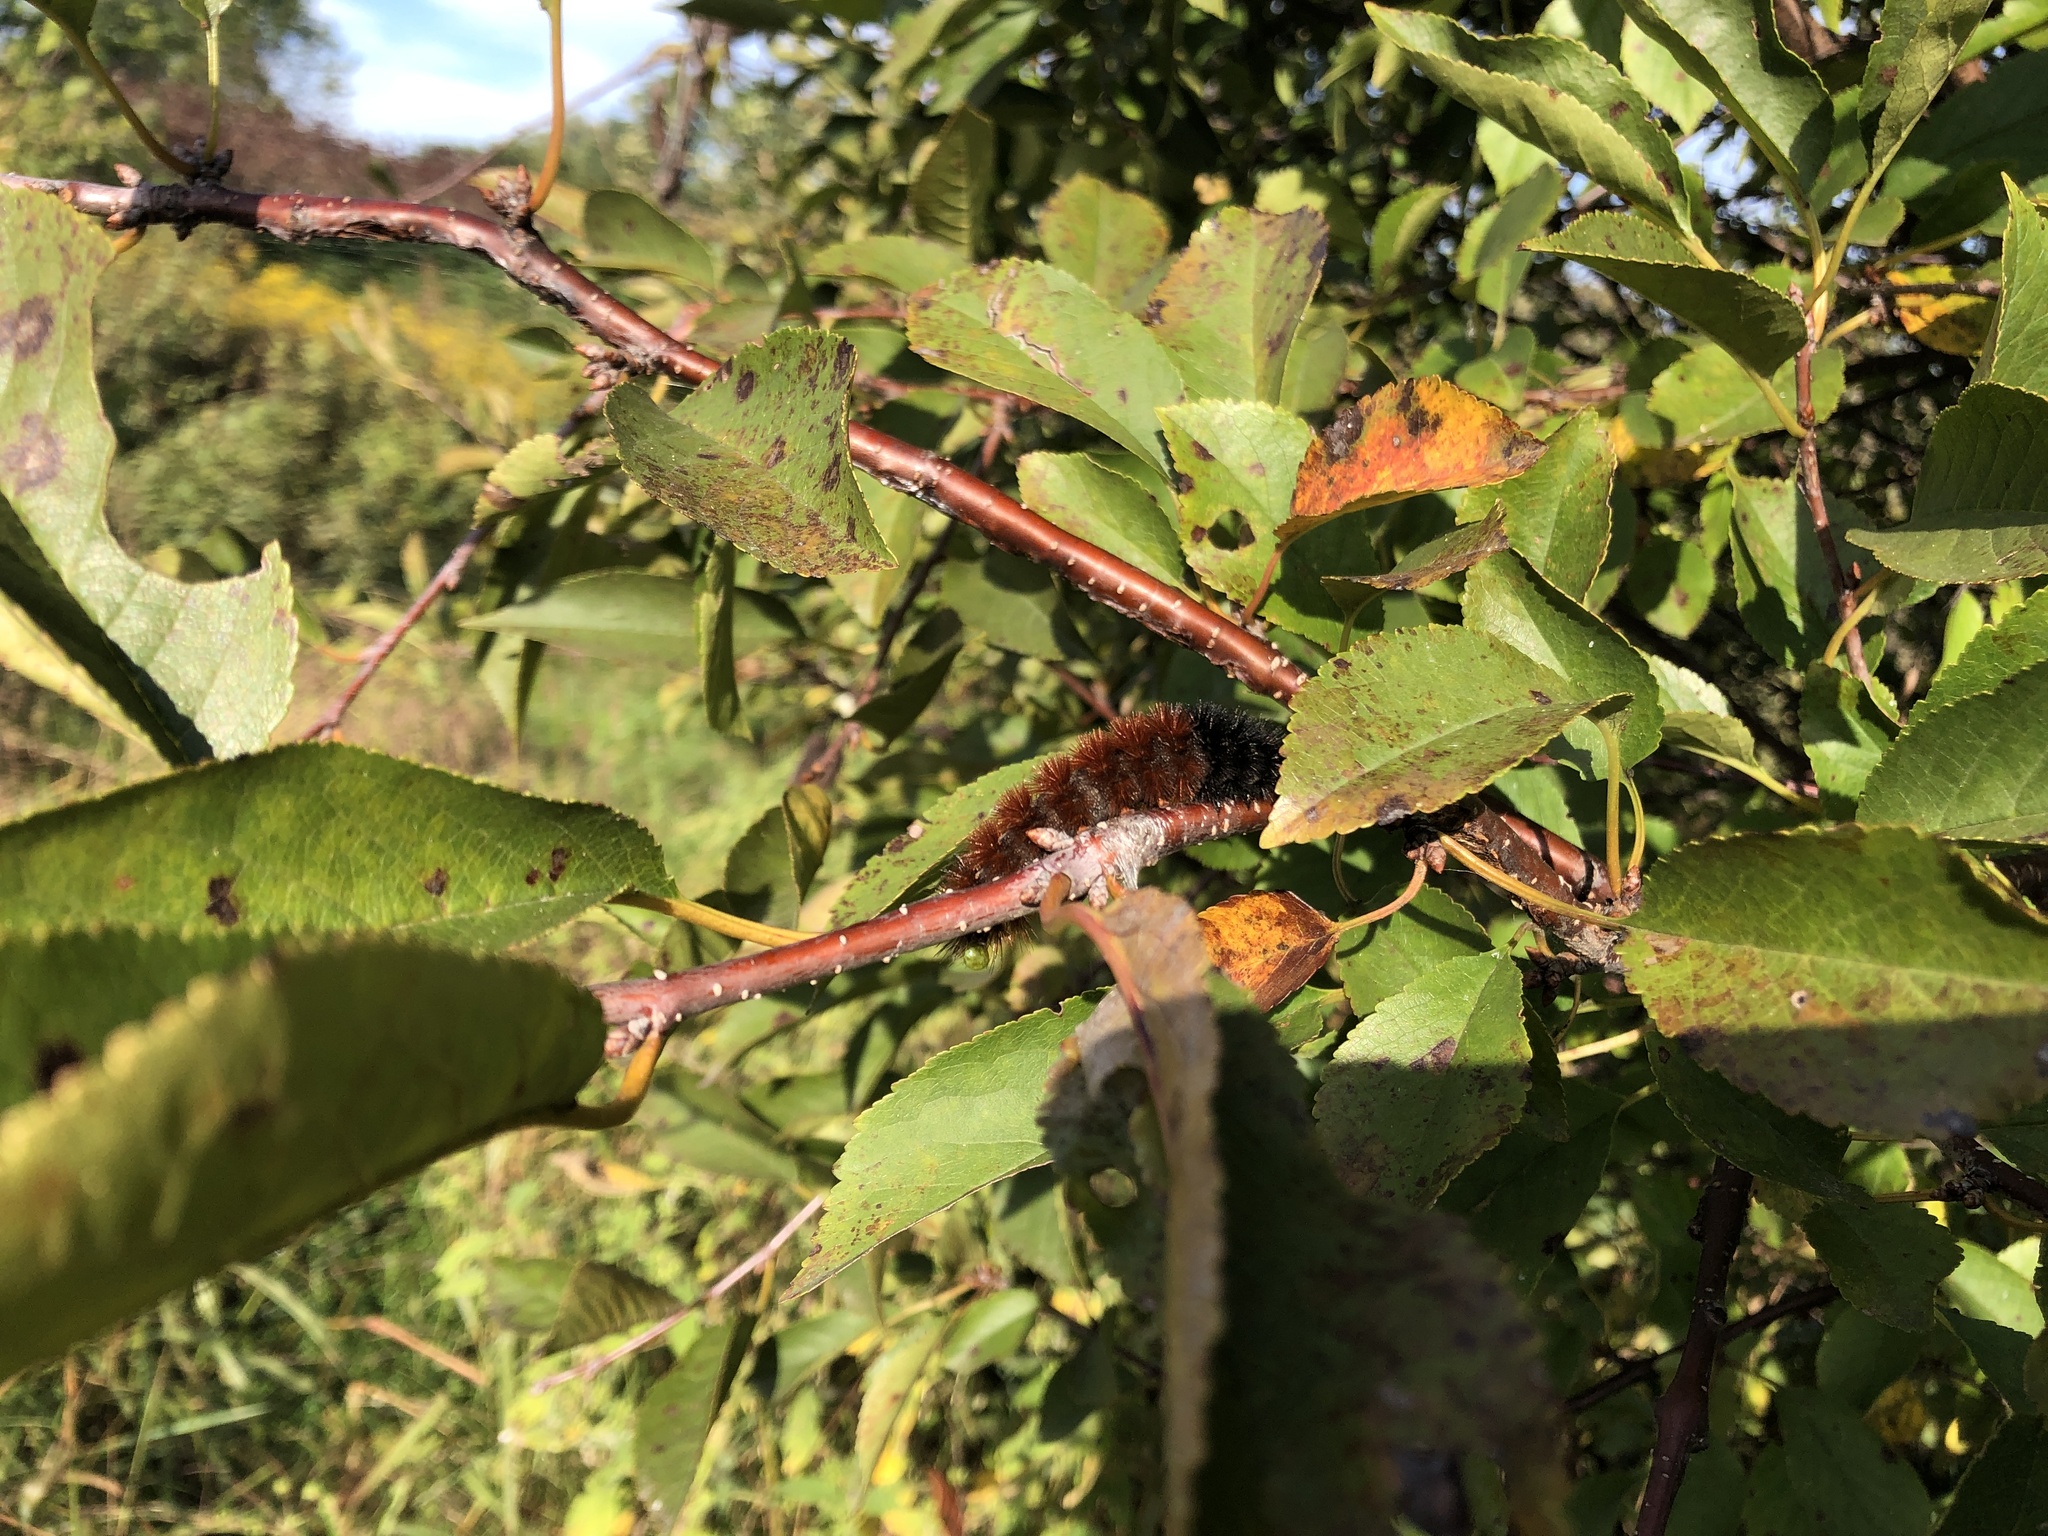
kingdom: Animalia
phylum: Arthropoda
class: Insecta
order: Lepidoptera
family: Erebidae
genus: Pyrrharctia
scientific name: Pyrrharctia isabella
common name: Isabella tiger moth
